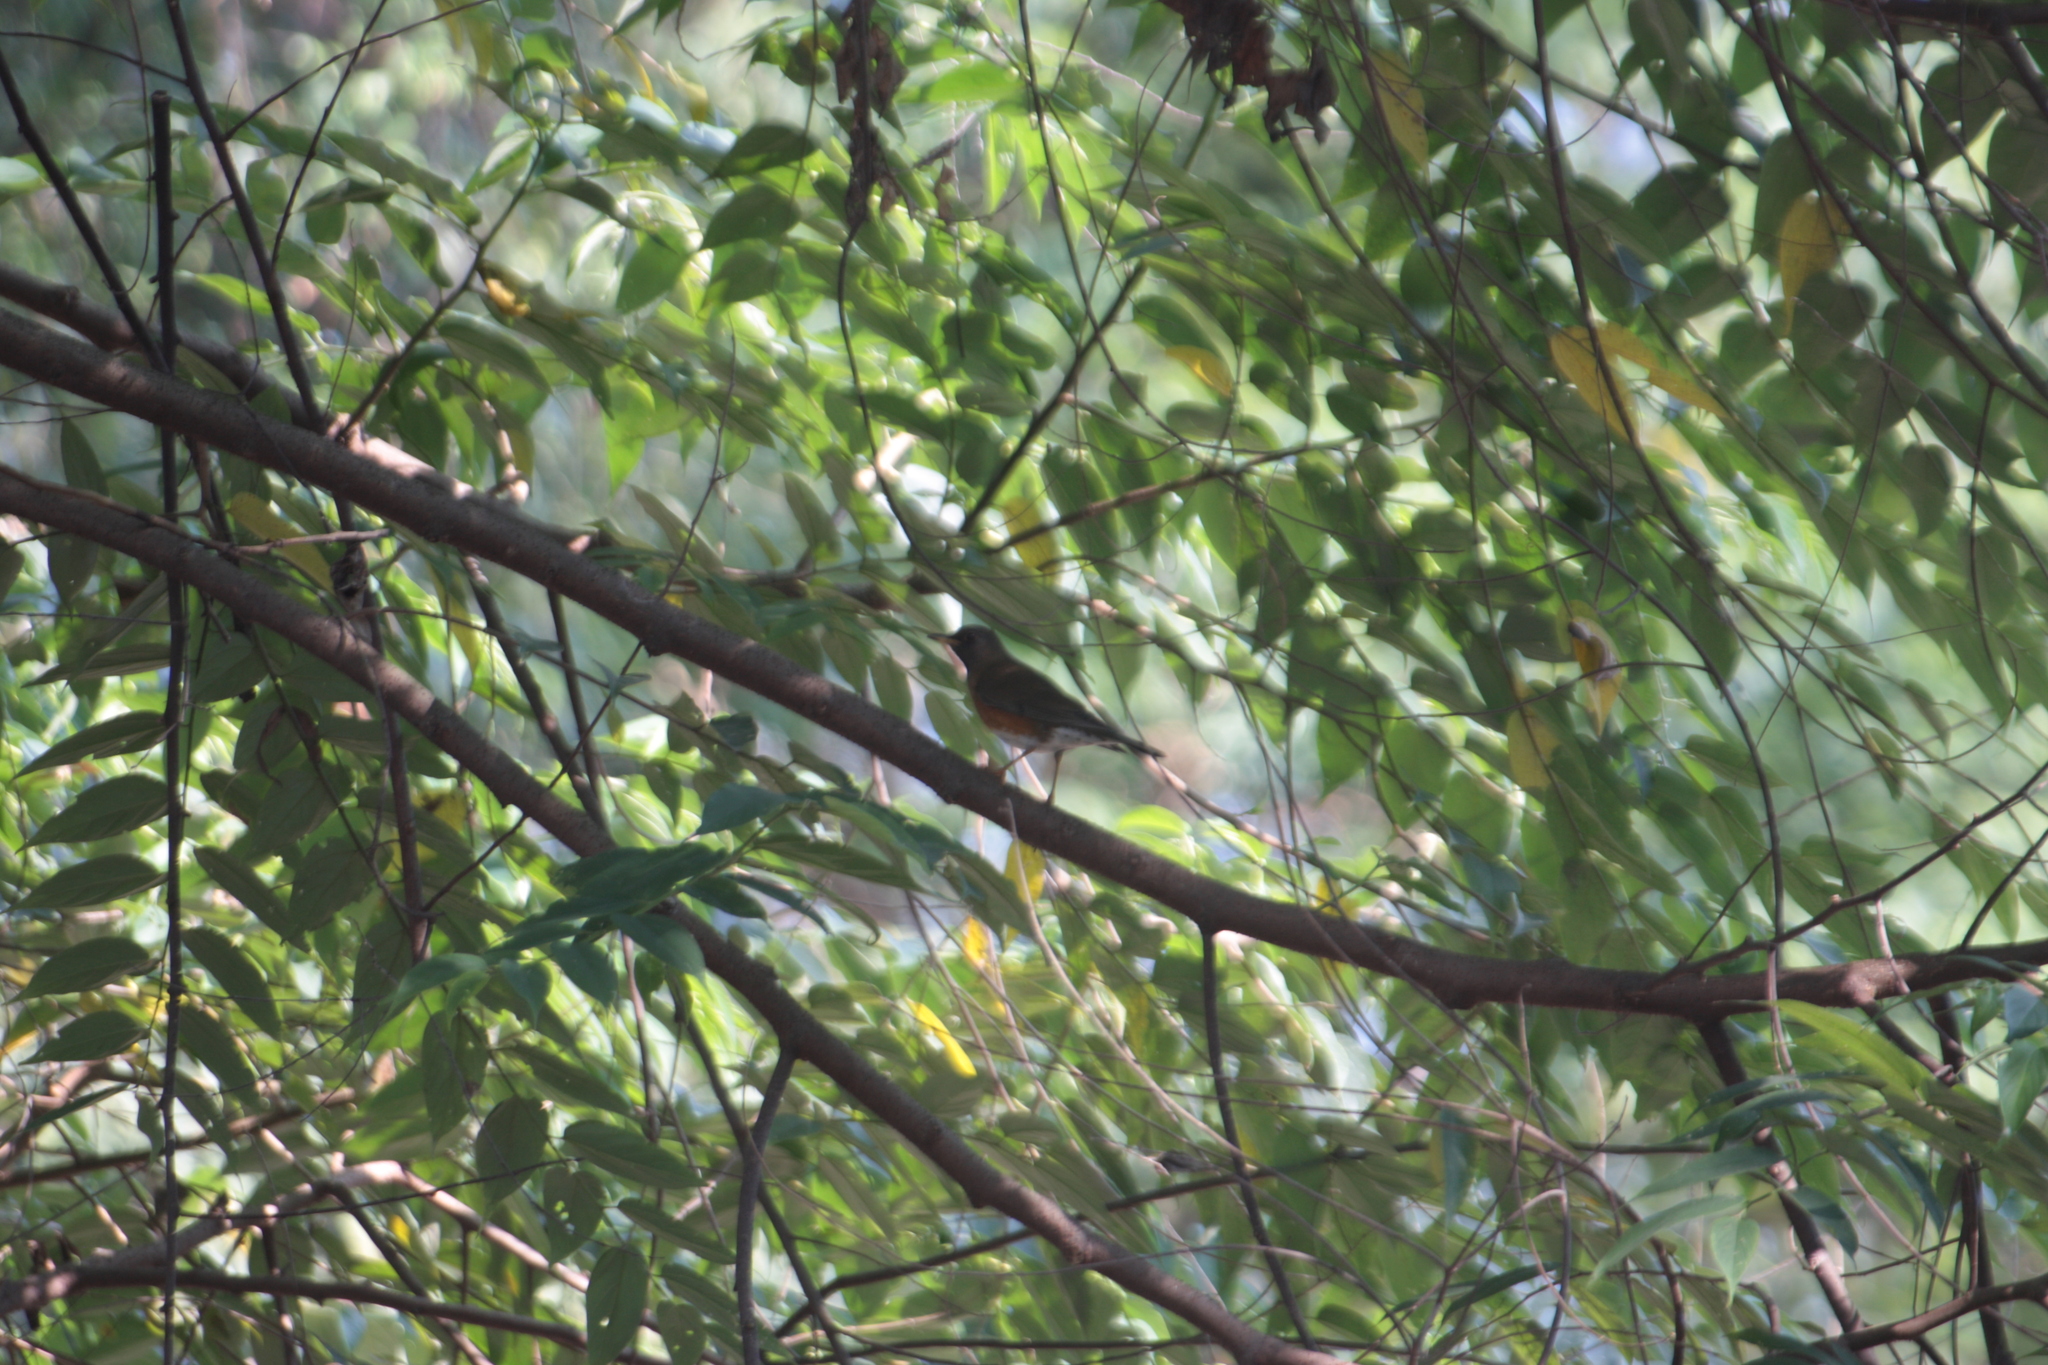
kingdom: Animalia
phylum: Chordata
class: Aves
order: Passeriformes
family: Turdidae
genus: Turdus
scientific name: Turdus chrysolaus
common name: Brown-headed thrush
